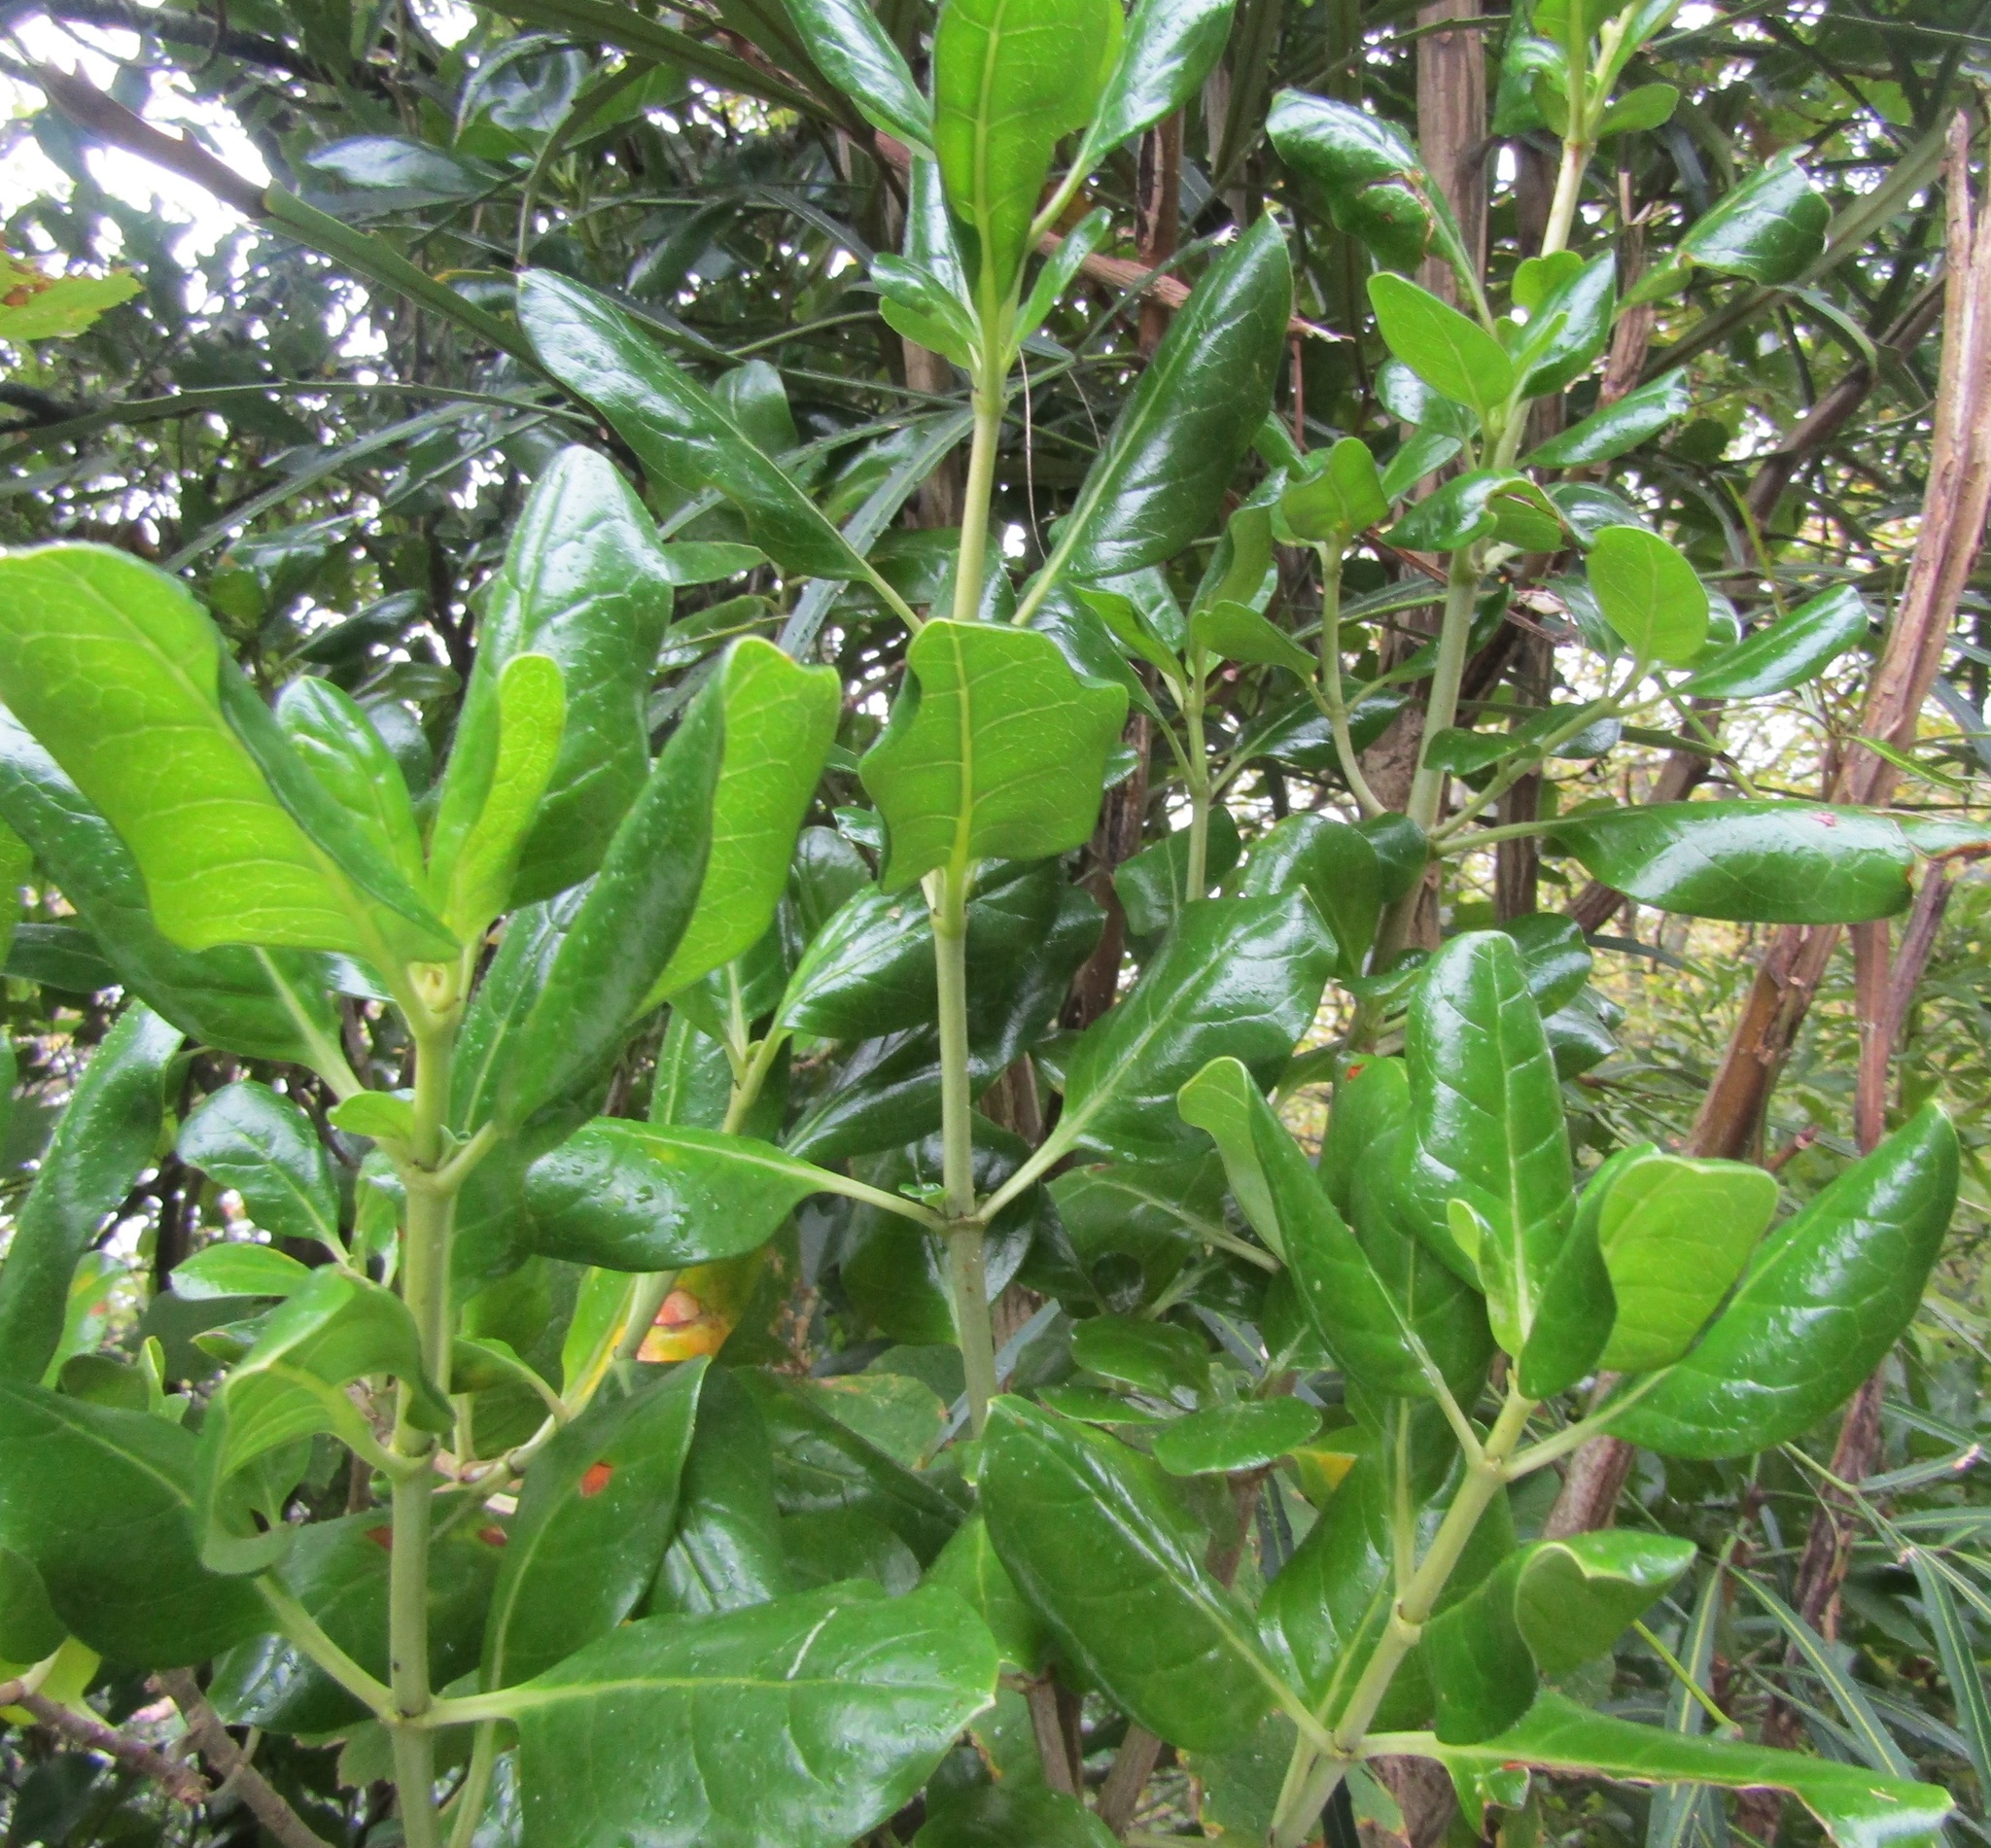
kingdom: Plantae
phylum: Tracheophyta
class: Magnoliopsida
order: Gentianales
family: Rubiaceae
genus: Coprosma
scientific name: Coprosma repens
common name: Tree bedstraw
